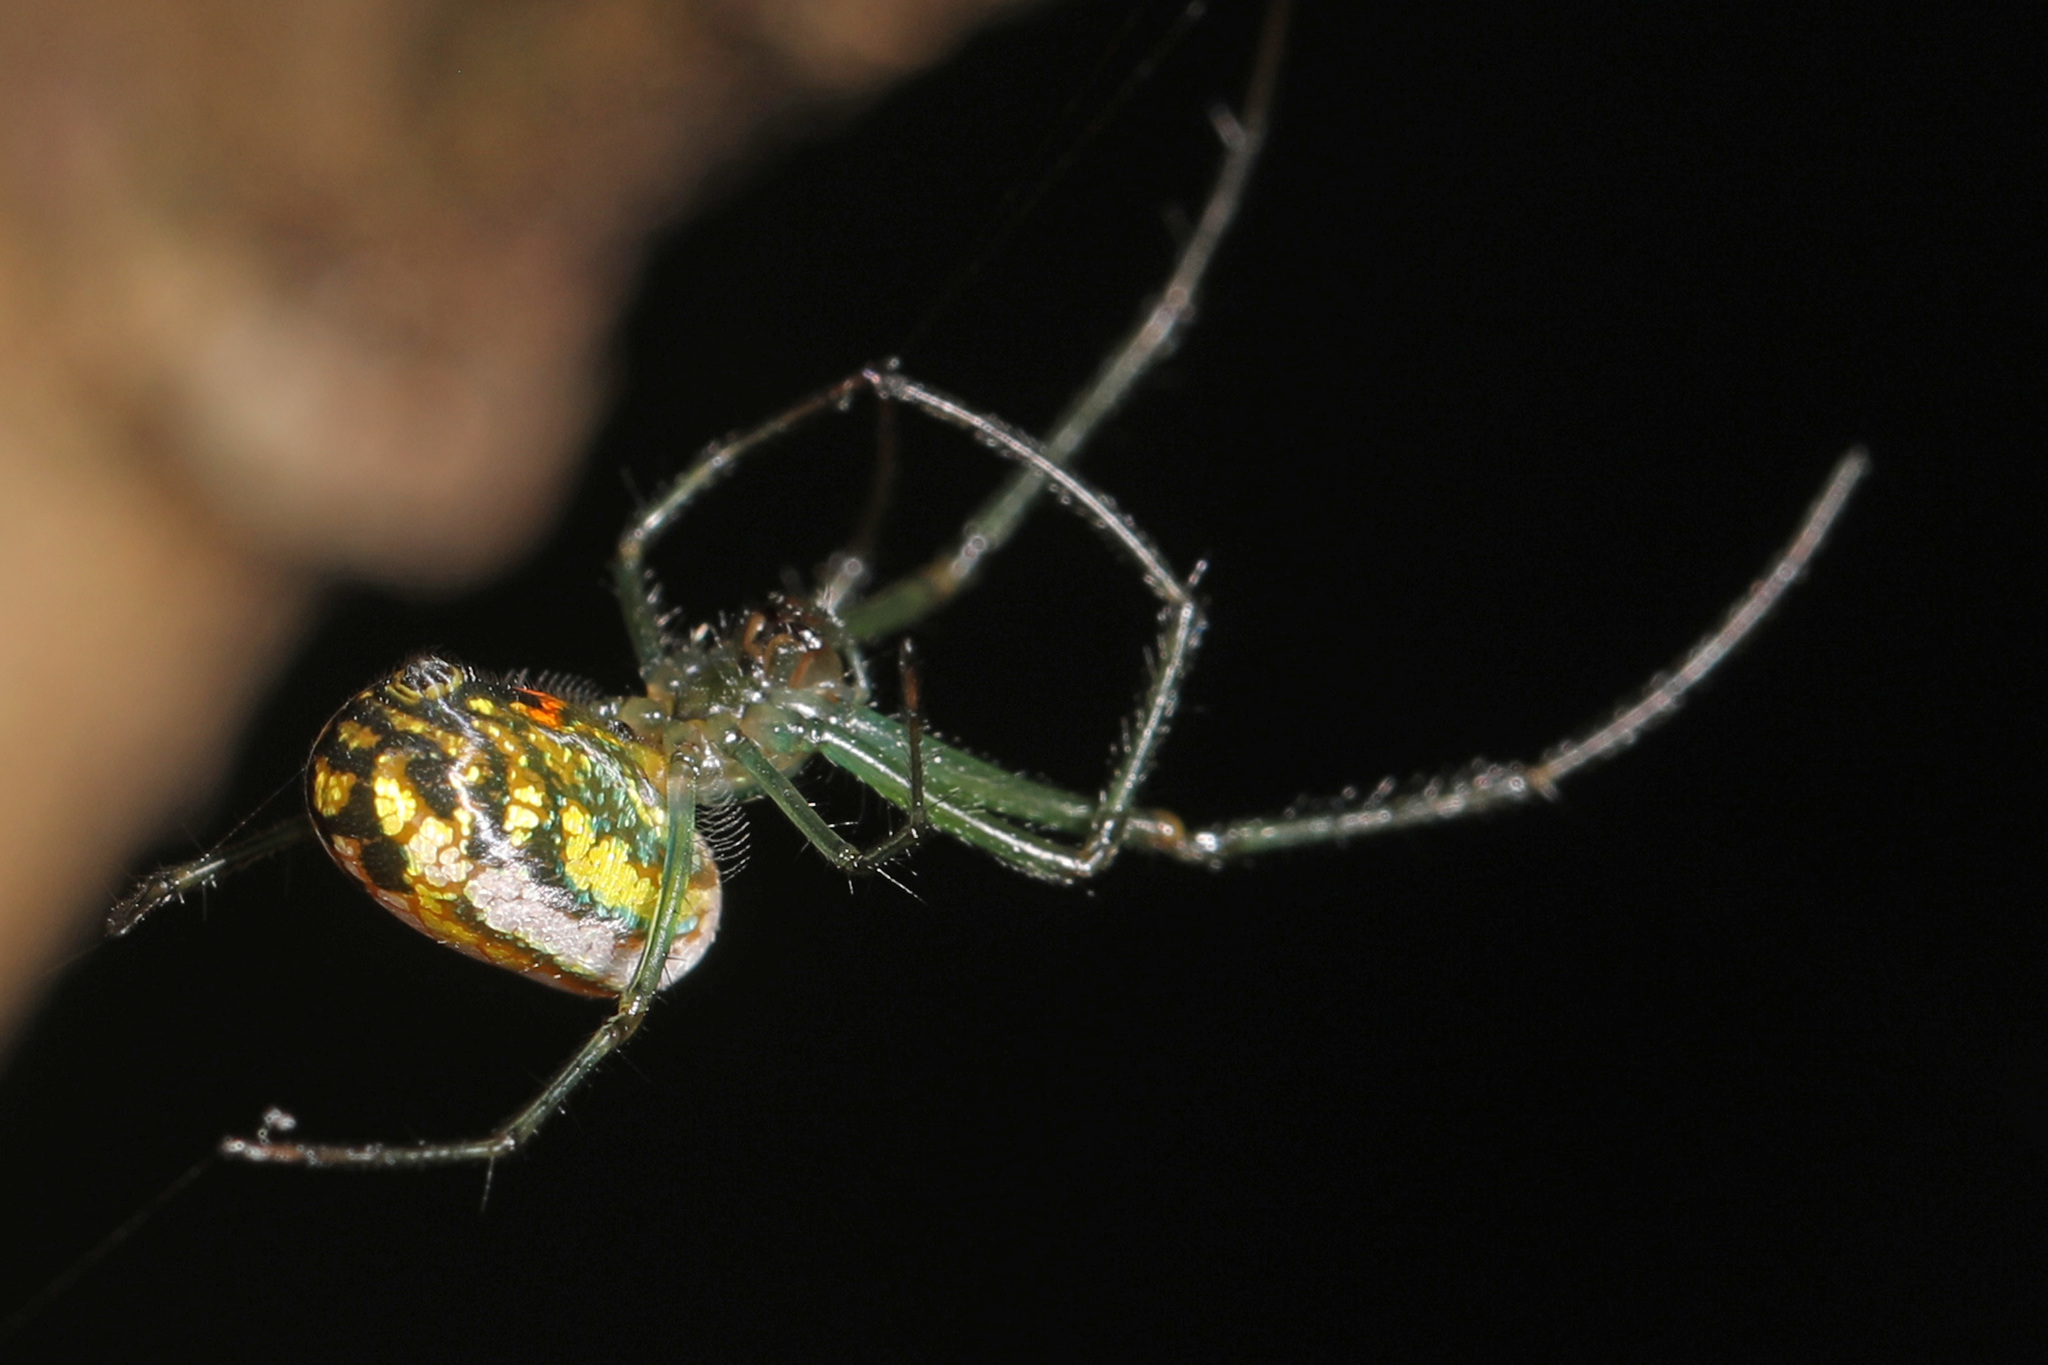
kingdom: Animalia
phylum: Arthropoda
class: Arachnida
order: Araneae
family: Tetragnathidae
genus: Leucauge
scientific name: Leucauge venusta
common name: Longjawed orb weavers
